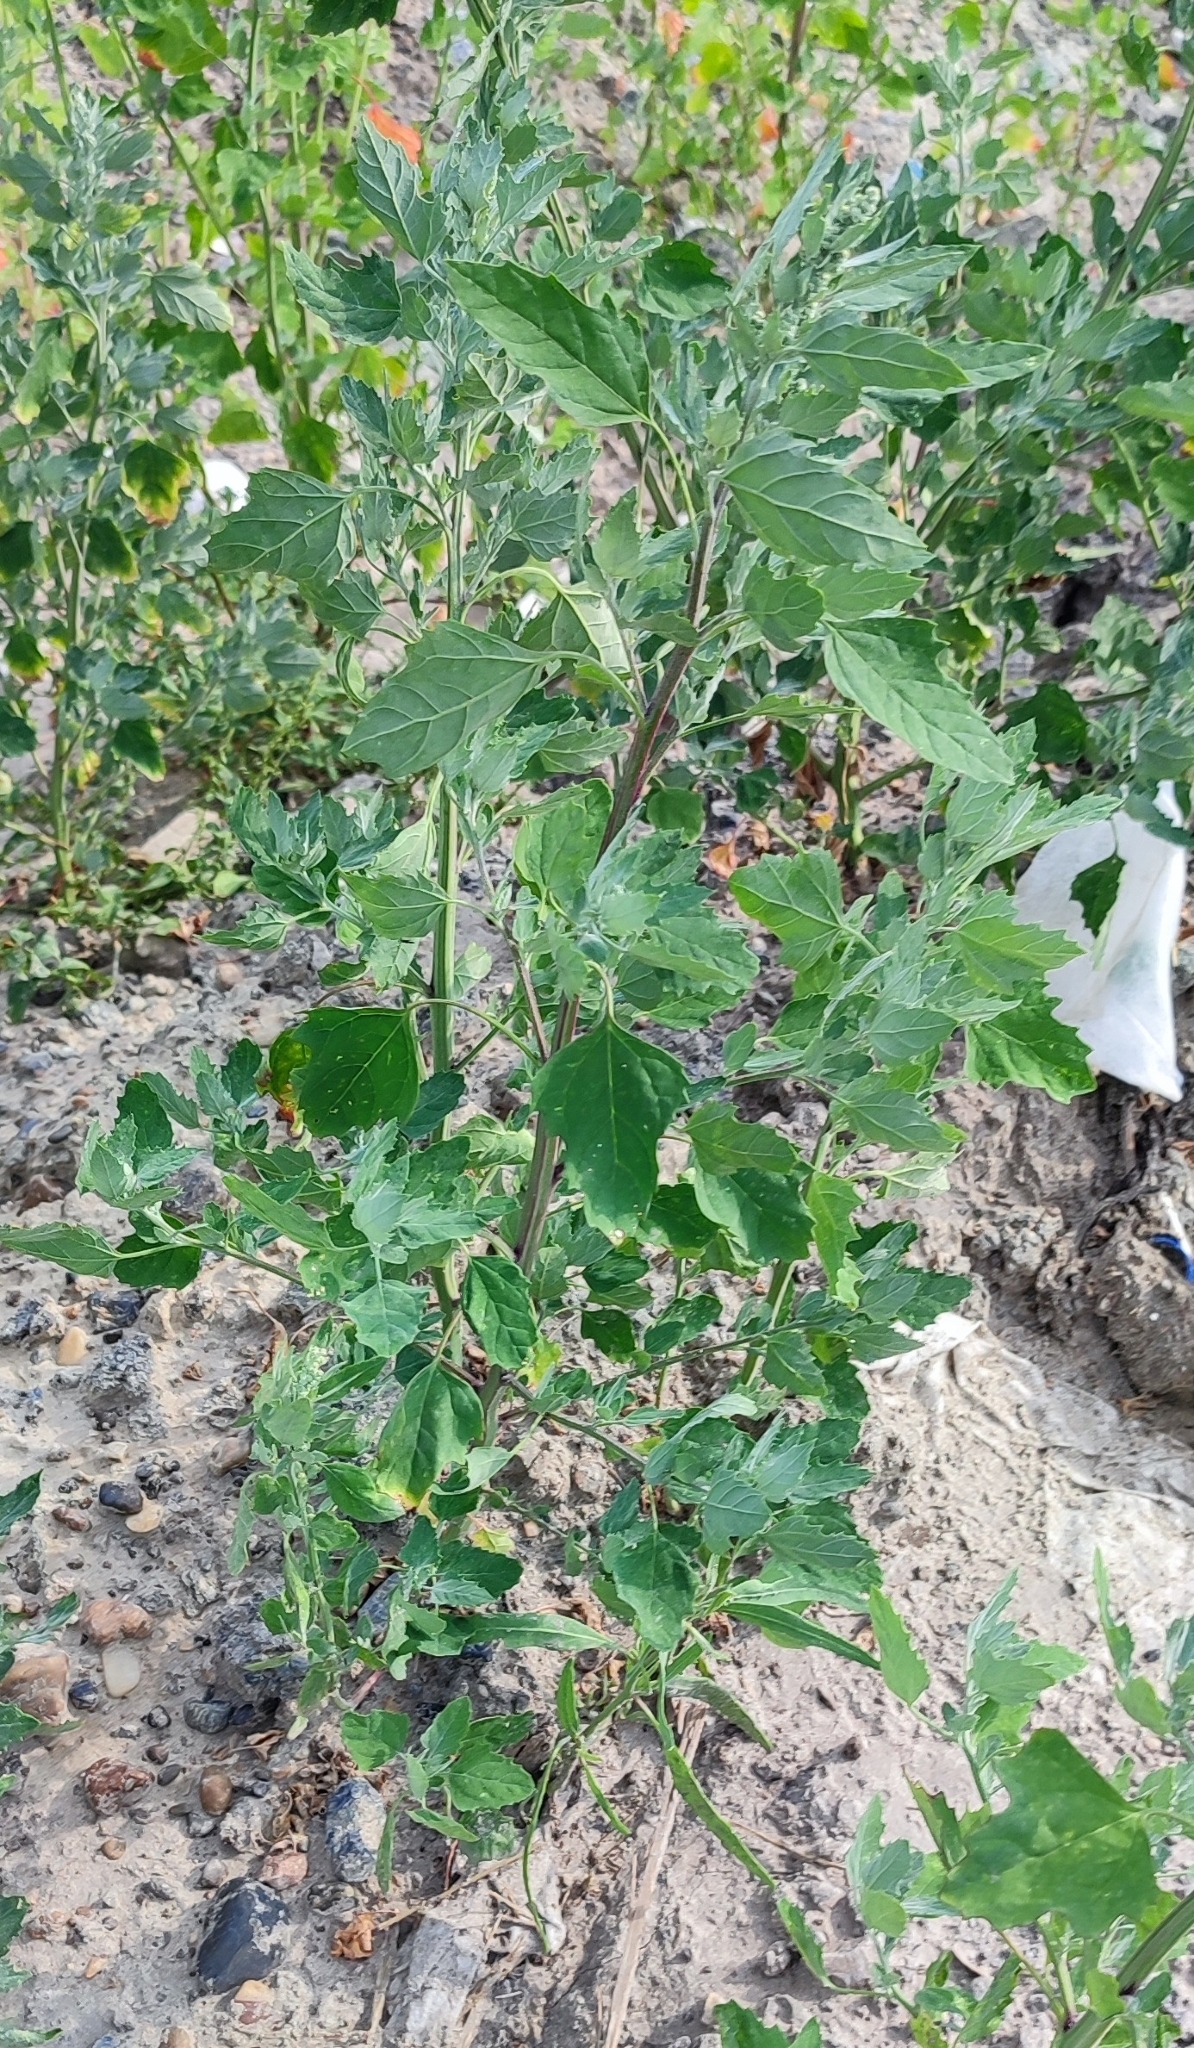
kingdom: Plantae
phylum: Tracheophyta
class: Magnoliopsida
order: Caryophyllales
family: Amaranthaceae
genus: Chenopodium
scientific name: Chenopodium album
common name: Fat-hen
